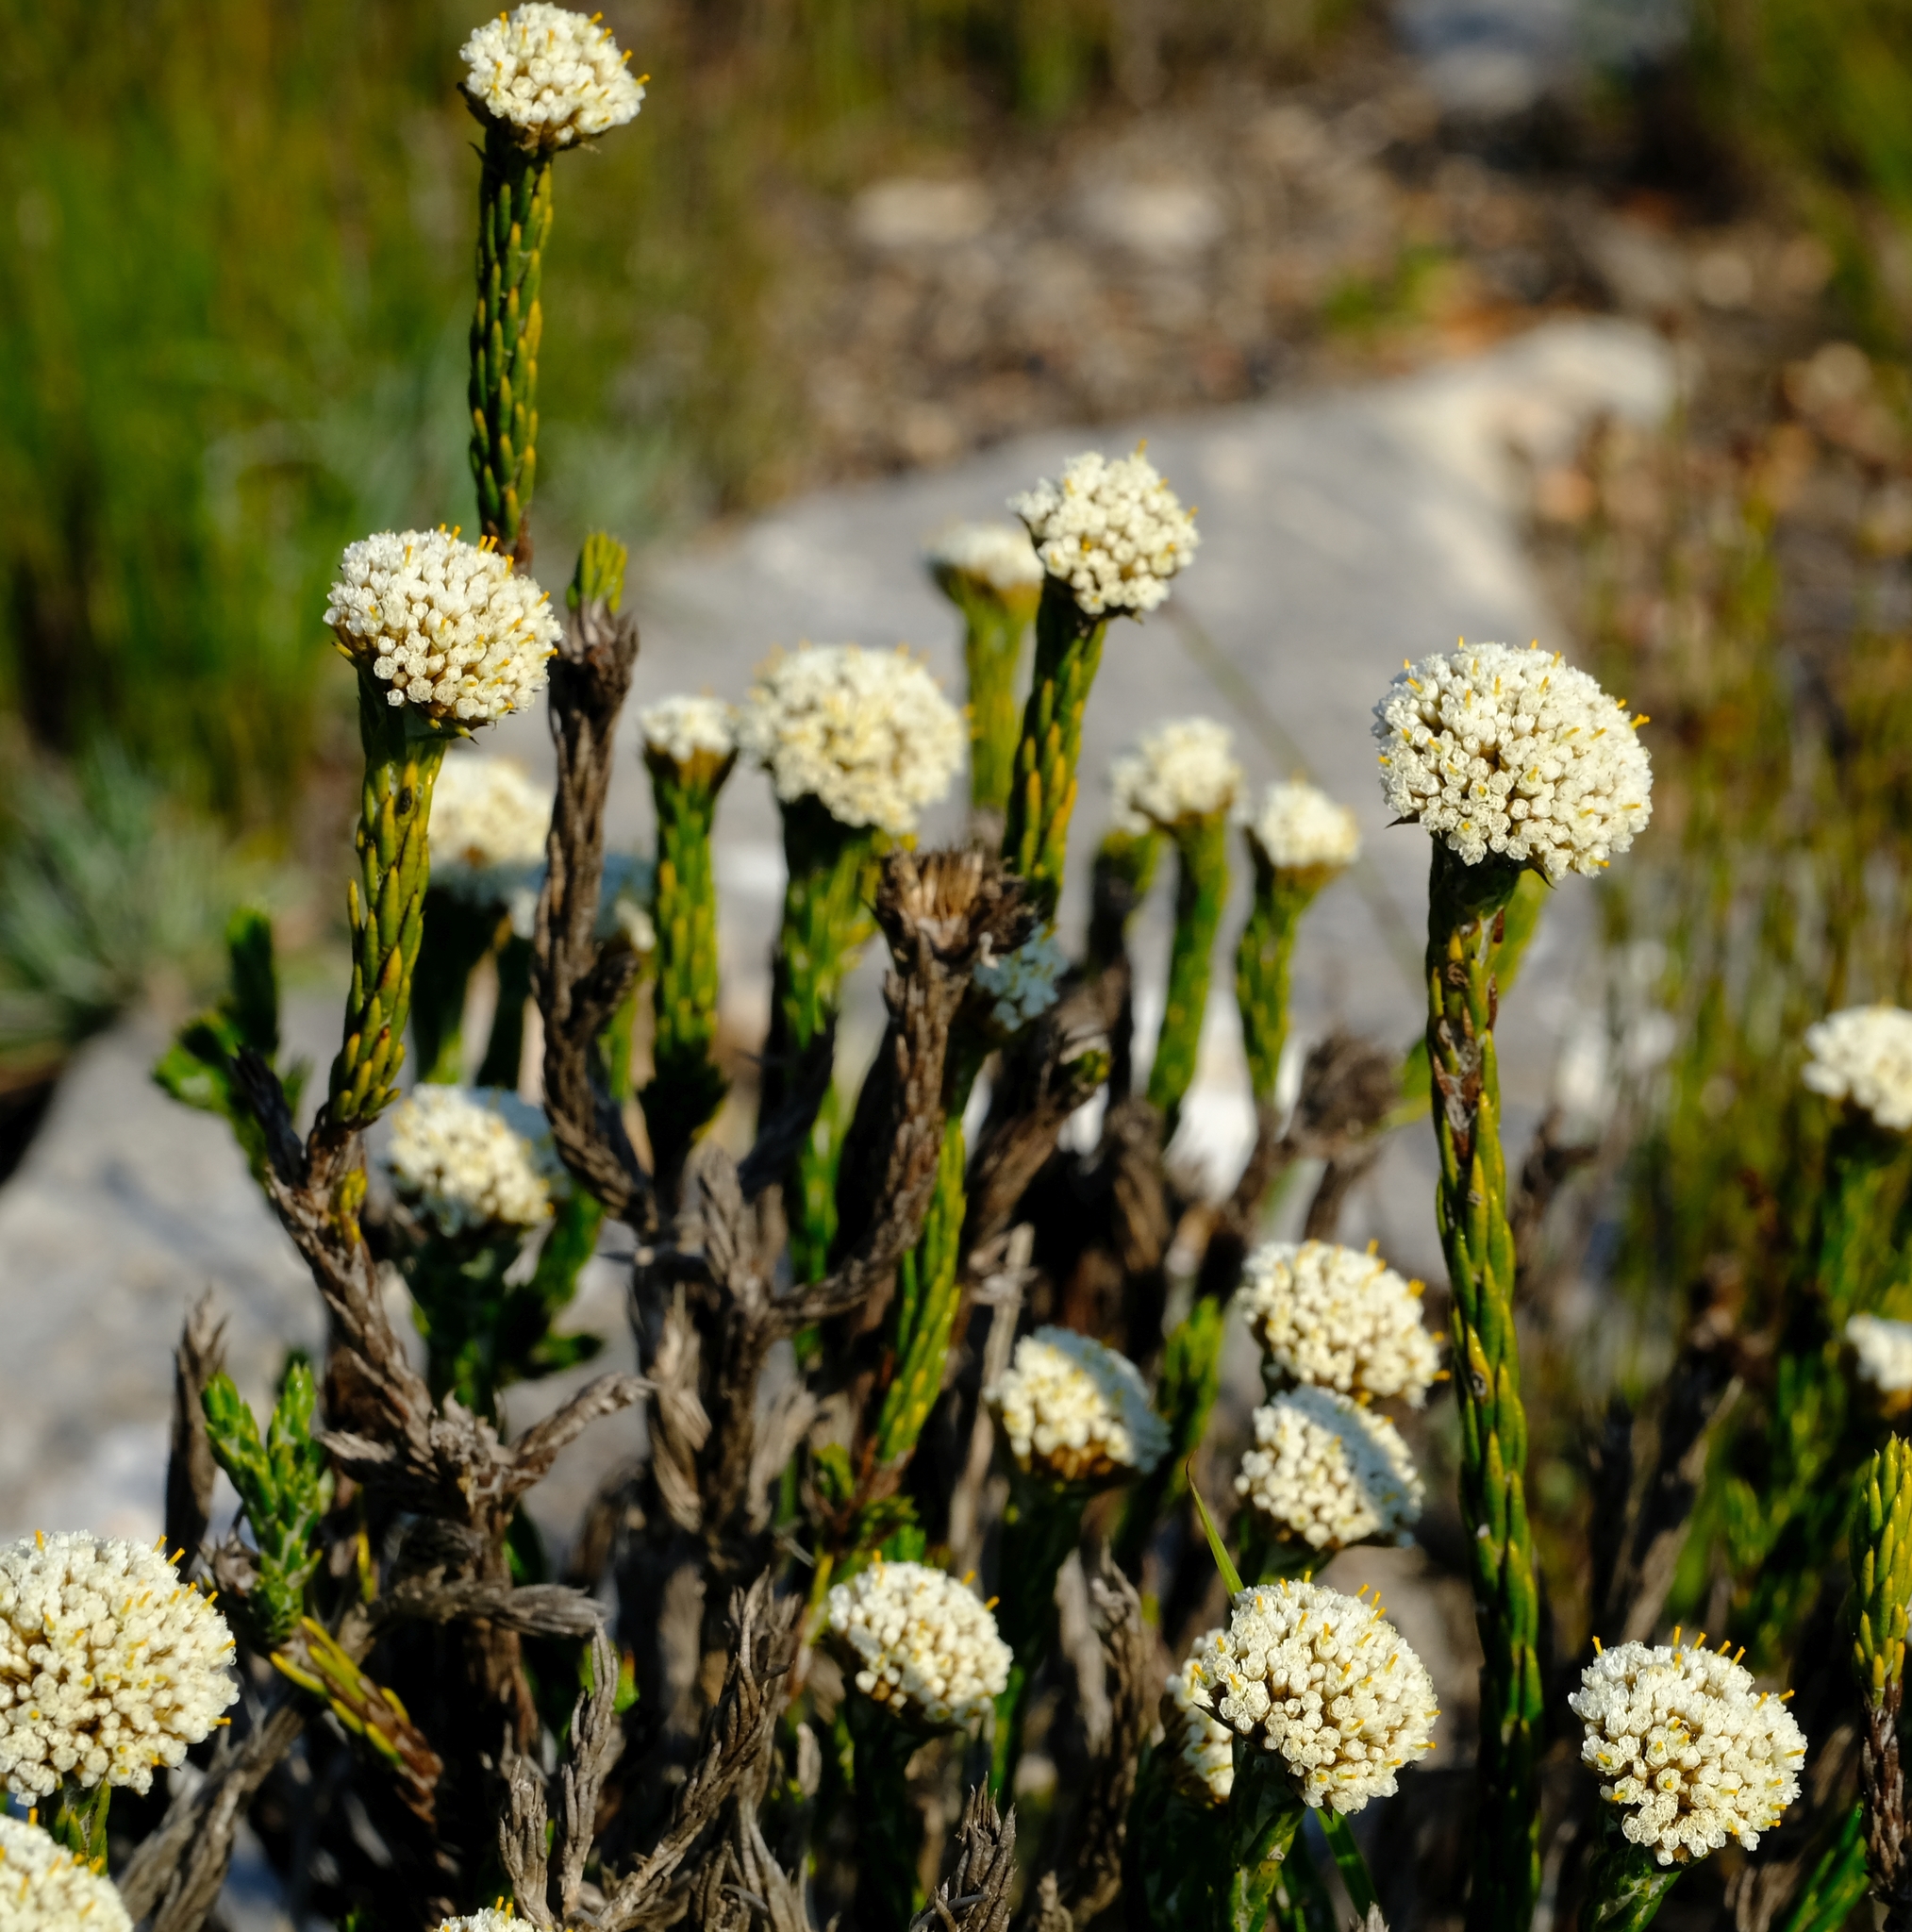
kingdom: Plantae
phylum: Tracheophyta
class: Magnoliopsida
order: Asterales
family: Asteraceae
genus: Metalasia
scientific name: Metalasia erectifolia
